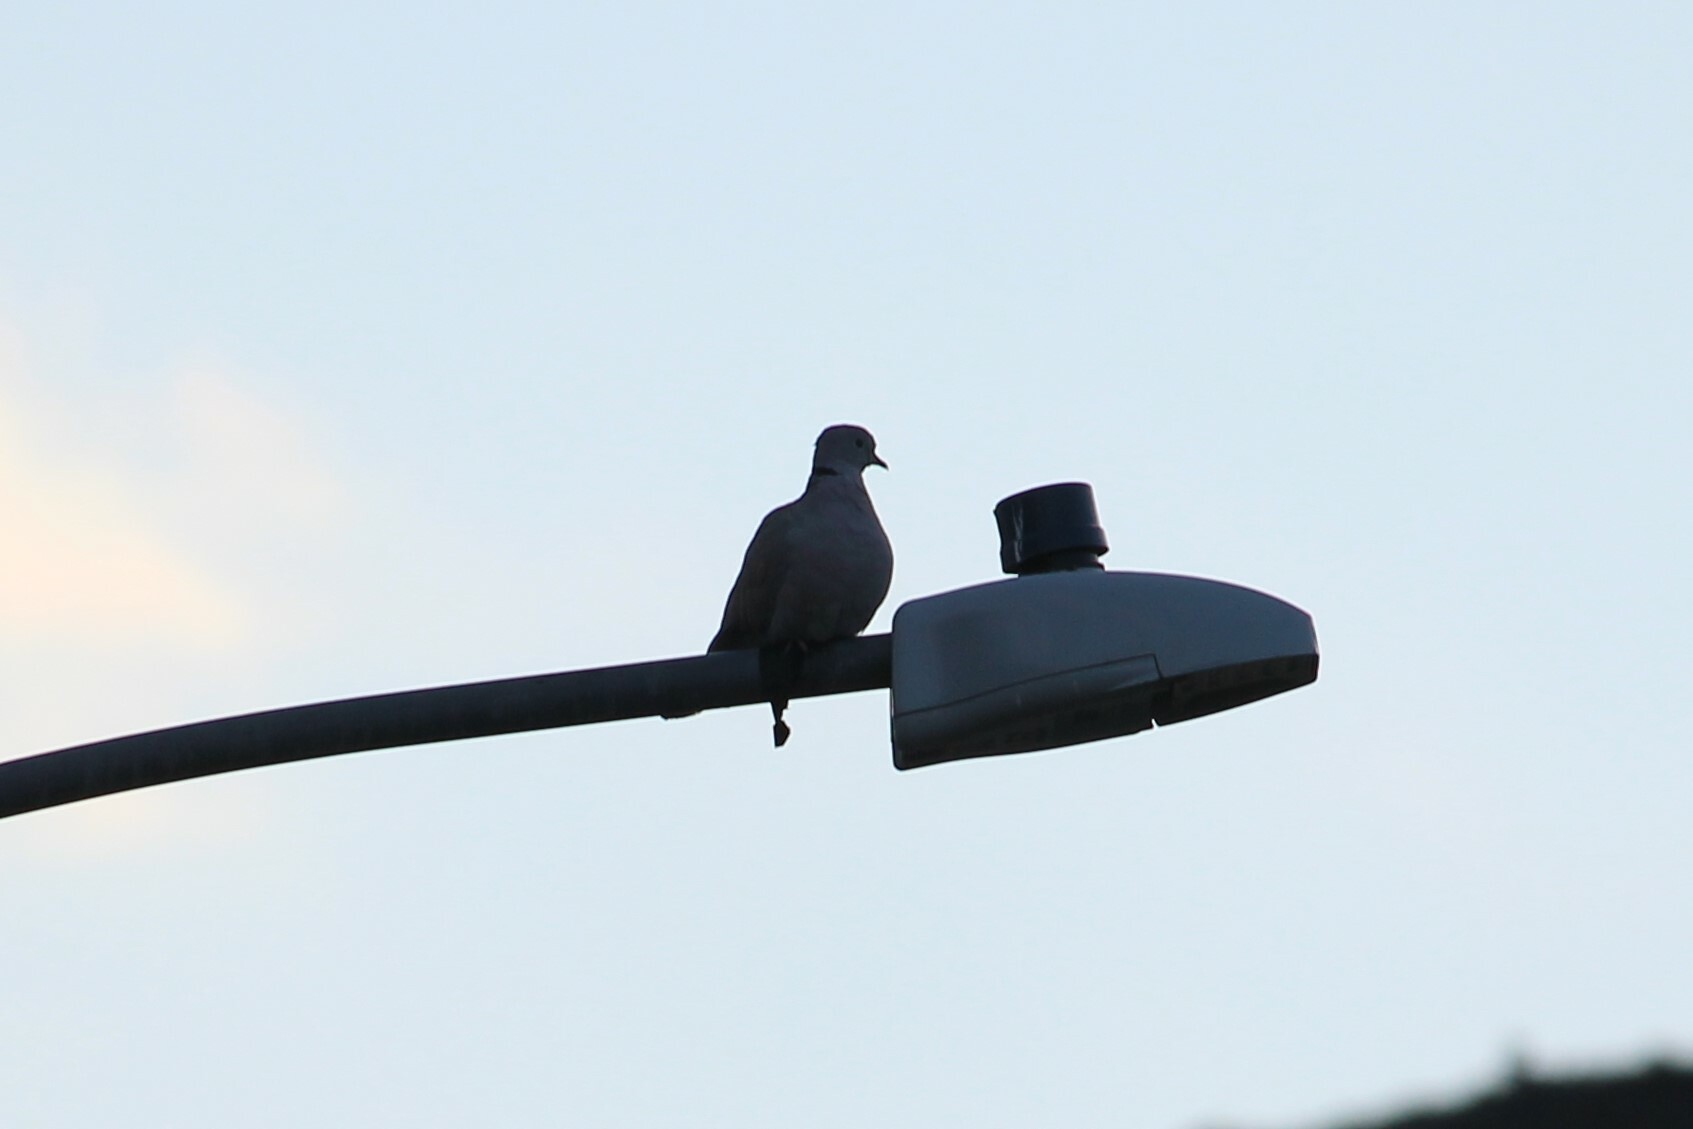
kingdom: Animalia
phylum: Chordata
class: Aves
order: Columbiformes
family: Columbidae
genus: Streptopelia
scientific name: Streptopelia decaocto
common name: Eurasian collared dove
